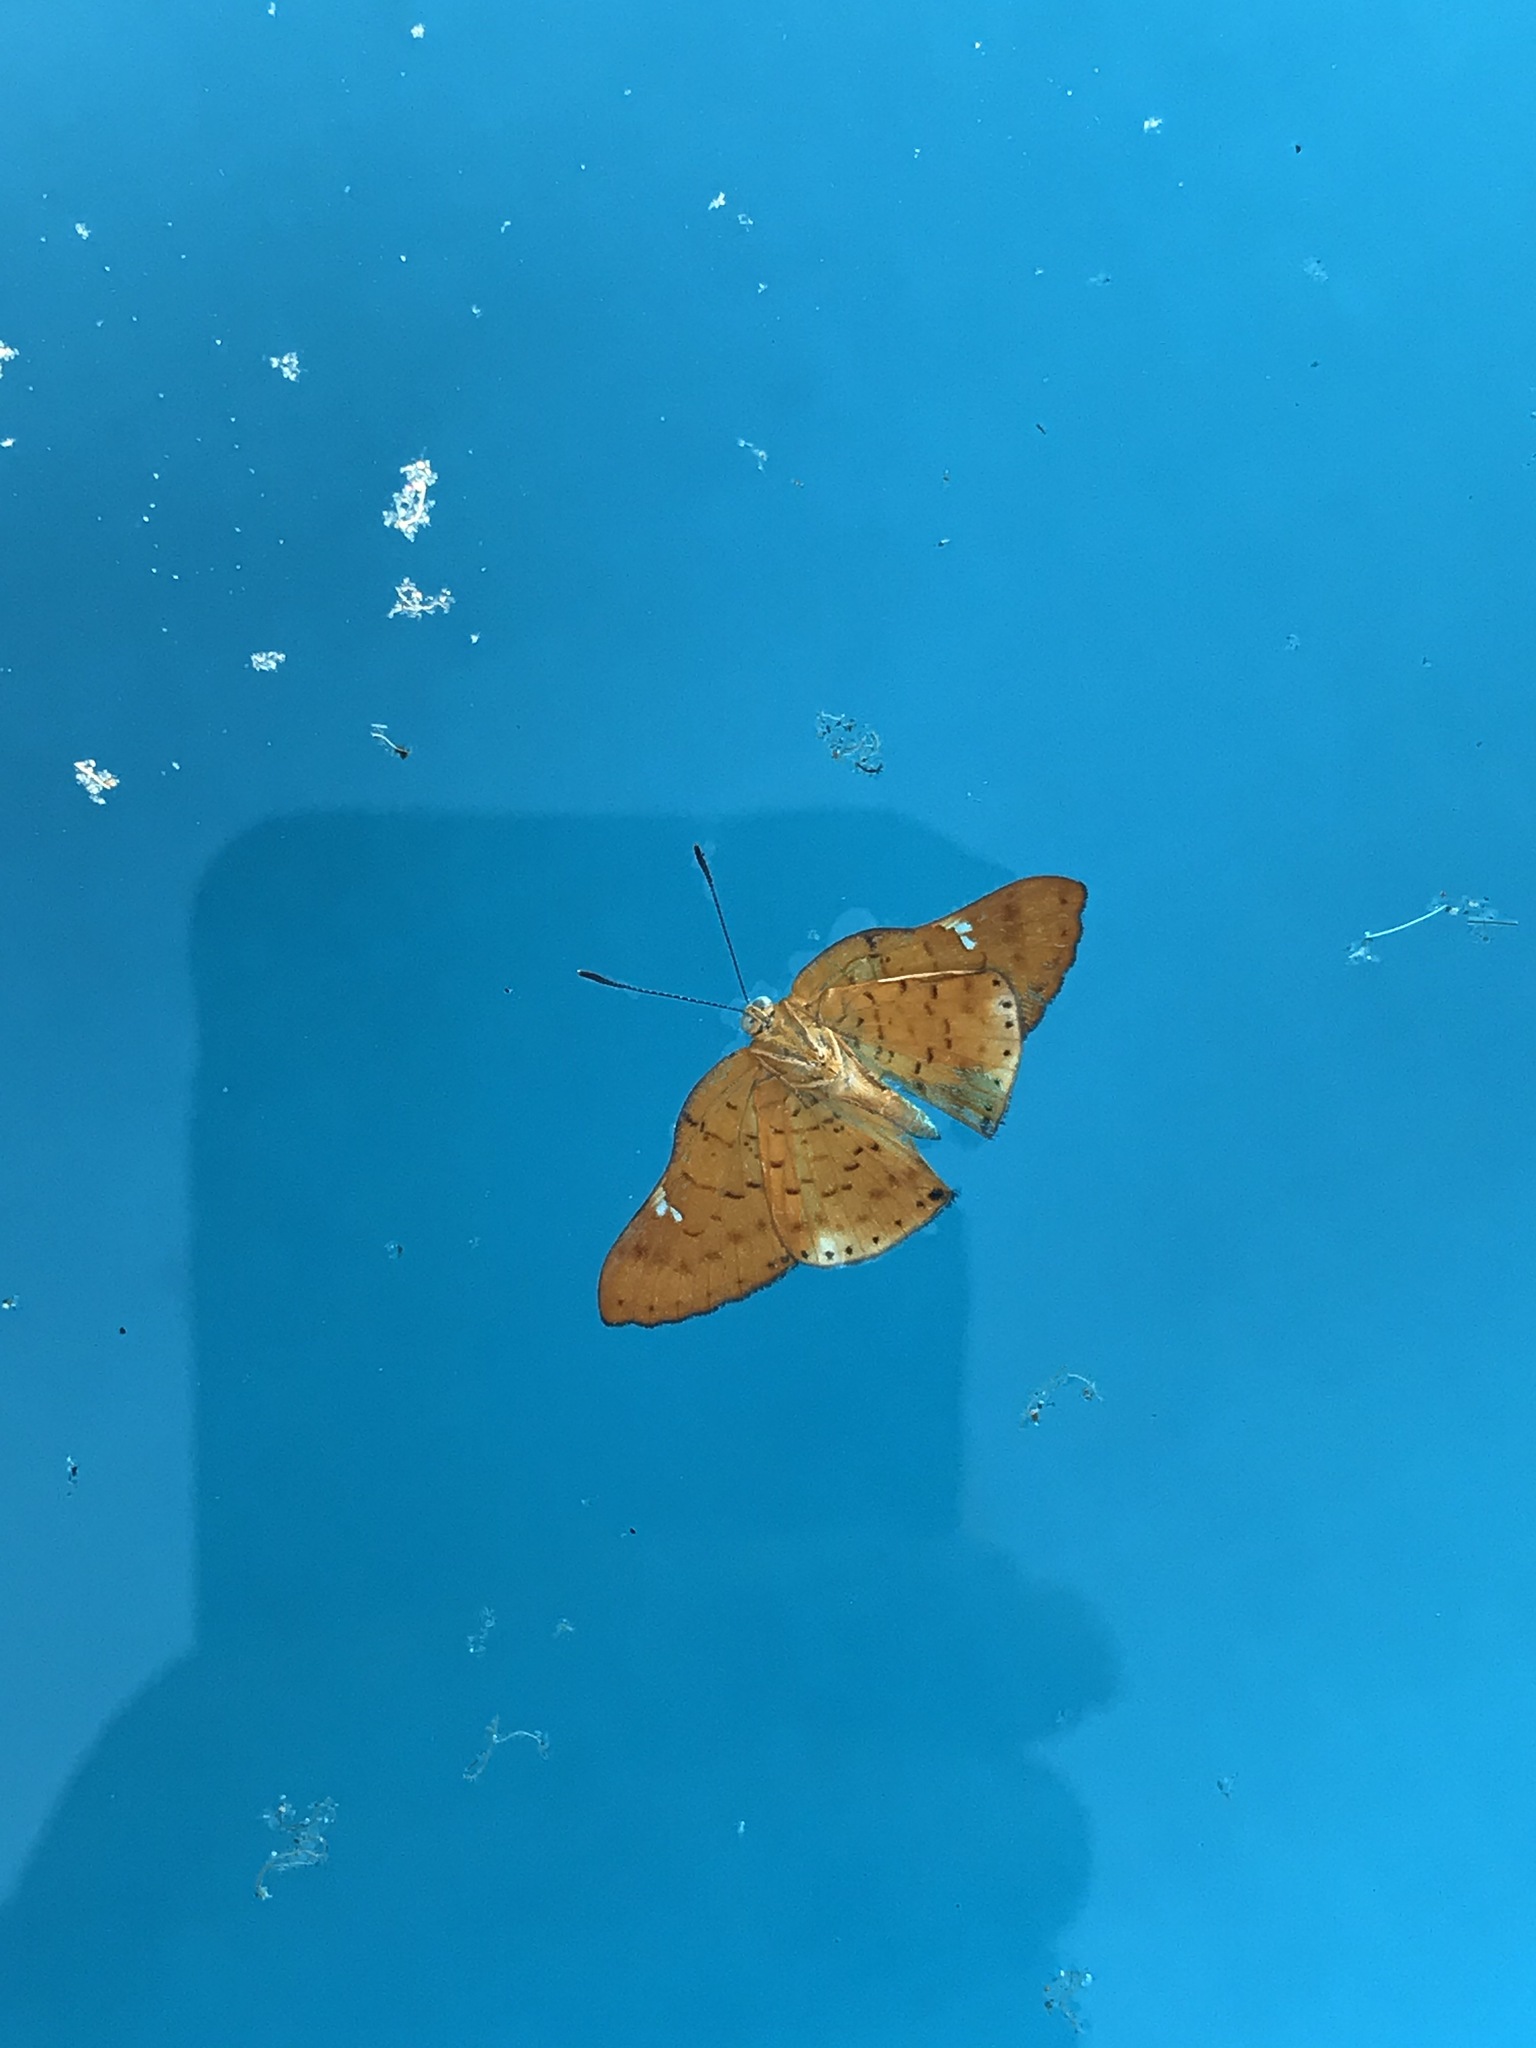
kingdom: Animalia
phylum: Arthropoda
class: Insecta
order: Lepidoptera
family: Riodinidae
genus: Curvie
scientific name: Curvie emesia
